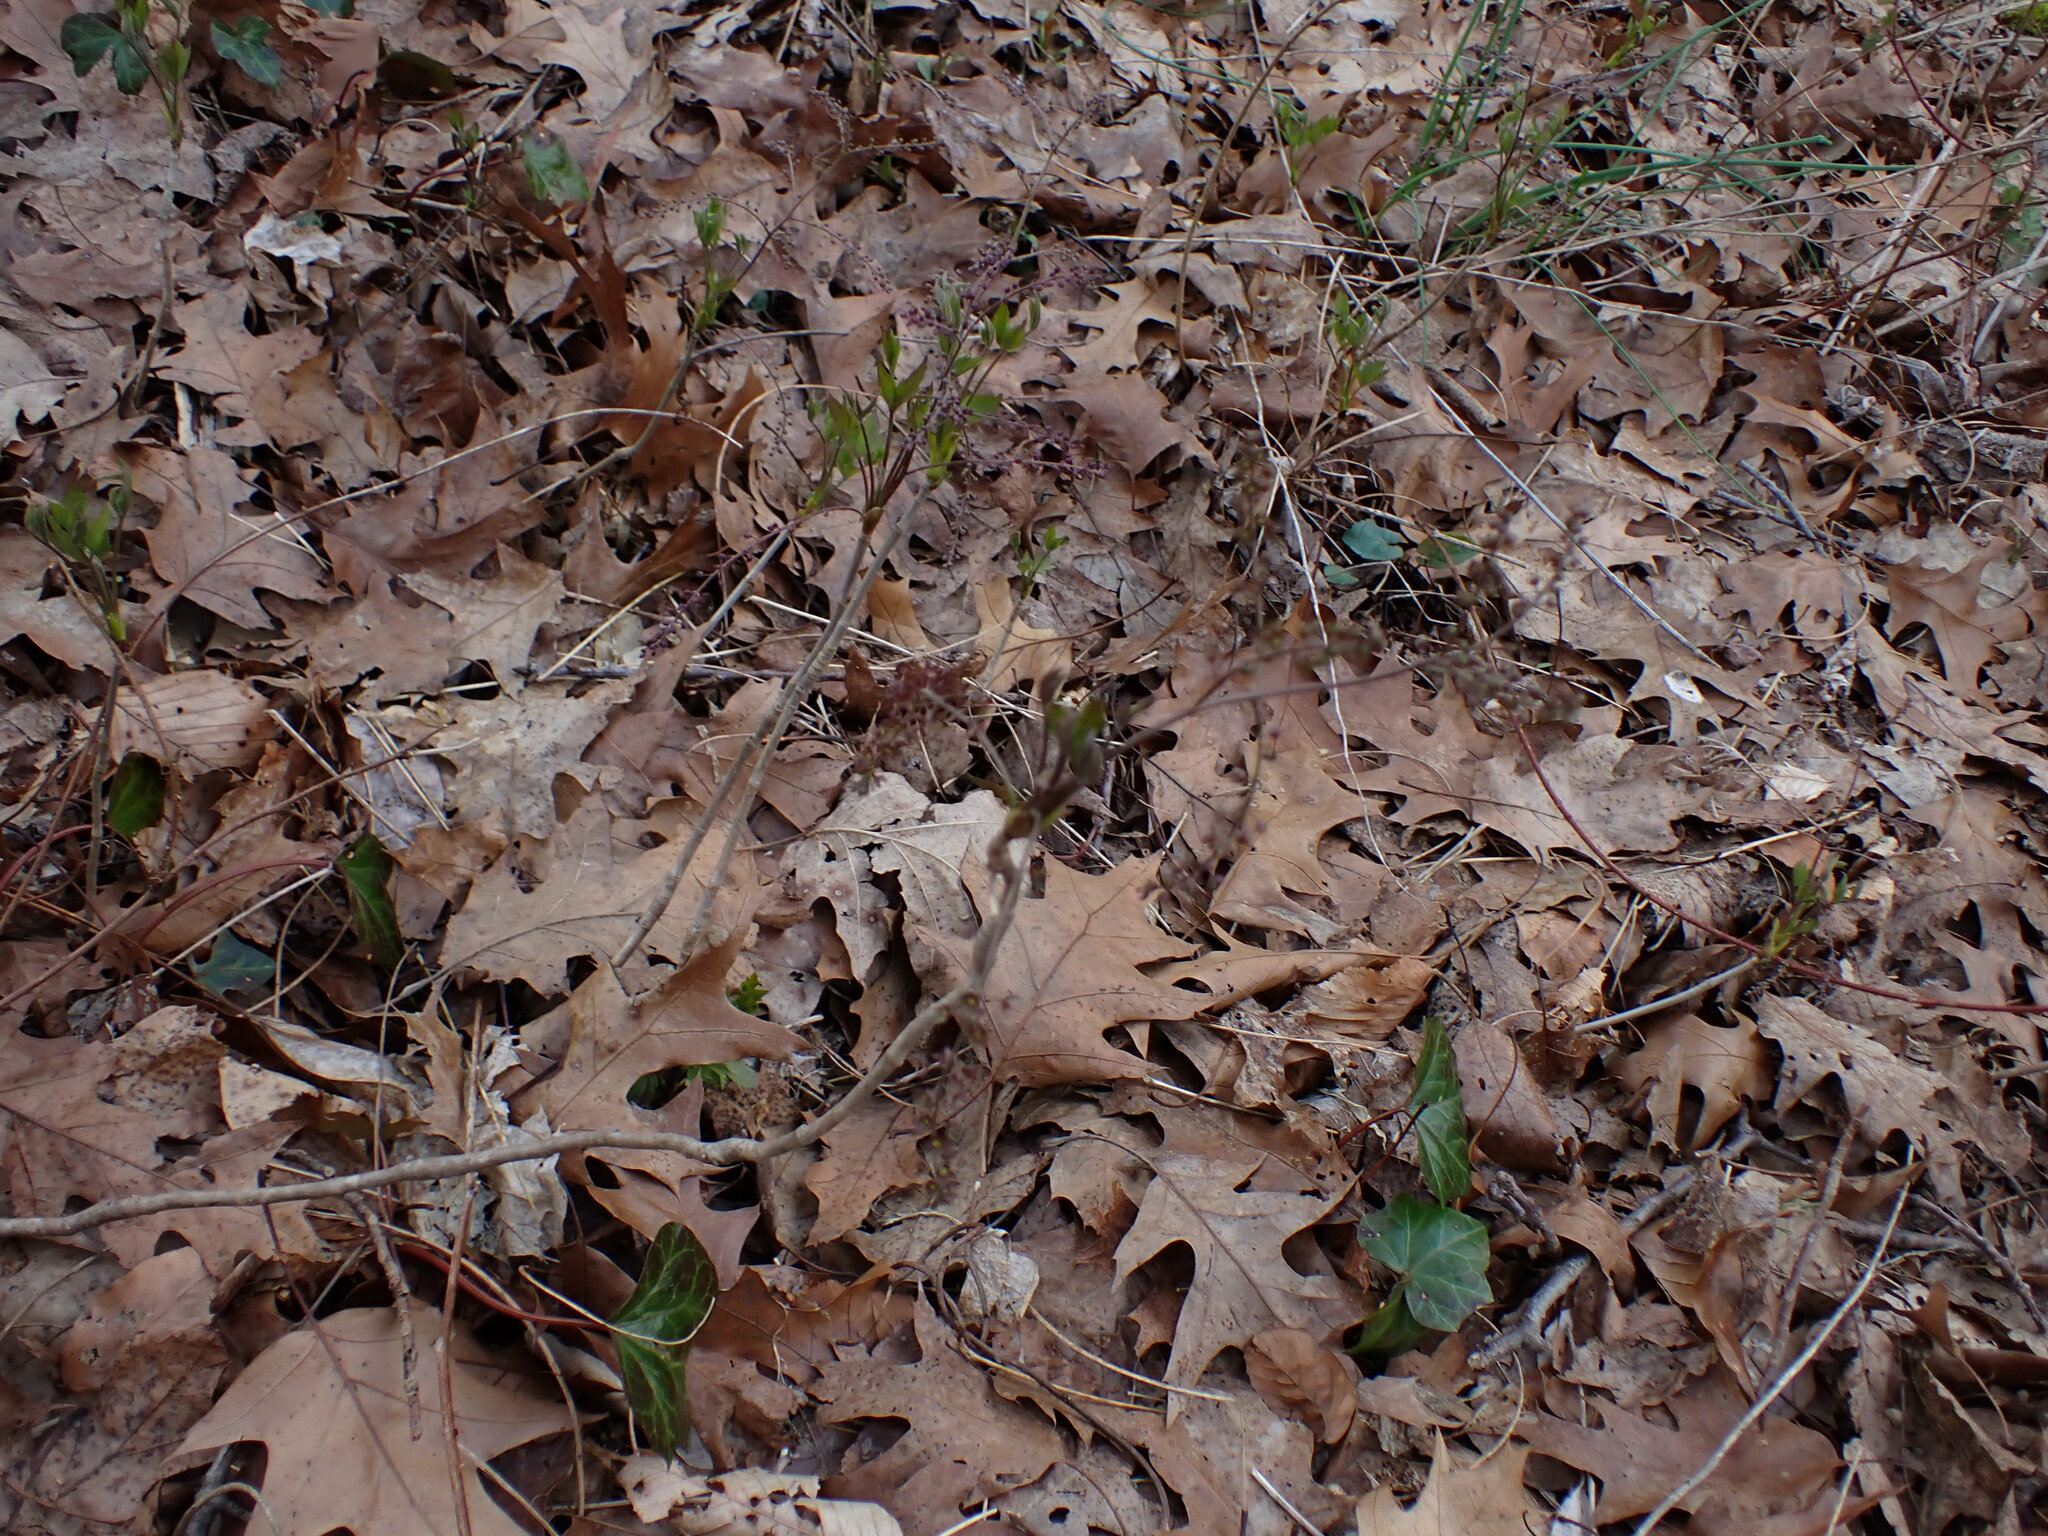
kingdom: Plantae
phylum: Tracheophyta
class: Magnoliopsida
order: Ranunculales
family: Ranunculaceae
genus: Xanthorhiza
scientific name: Xanthorhiza simplicissima
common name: Yellowroot
